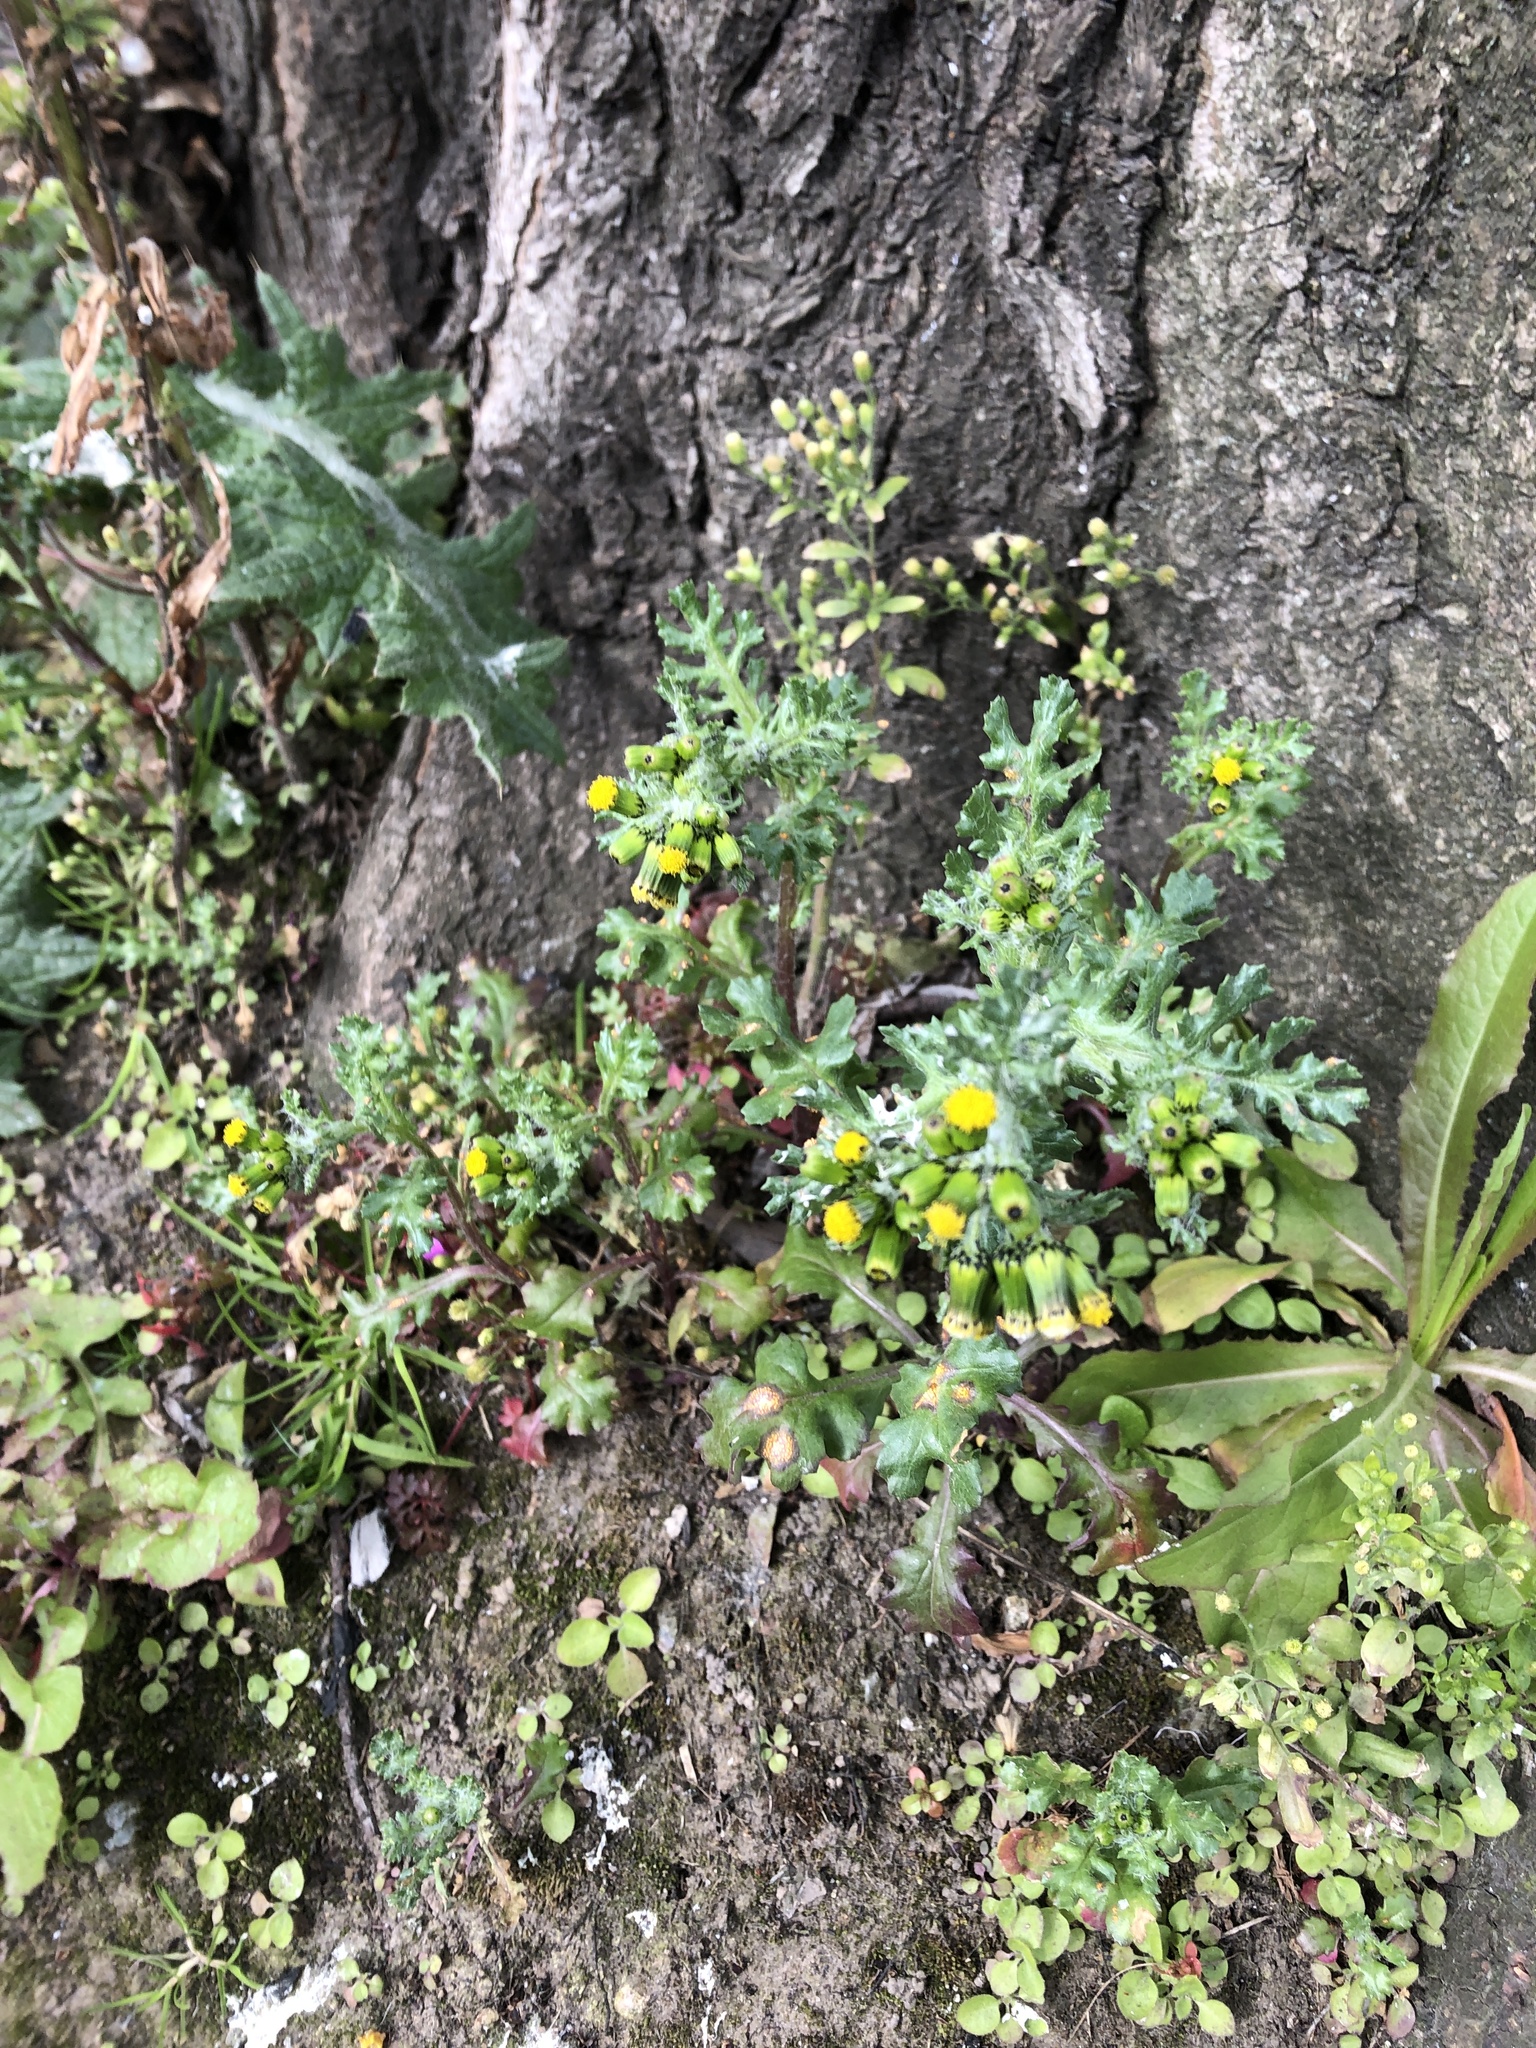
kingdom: Plantae
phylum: Tracheophyta
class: Magnoliopsida
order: Asterales
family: Asteraceae
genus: Senecio
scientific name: Senecio vulgaris
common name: Old-man-in-the-spring
